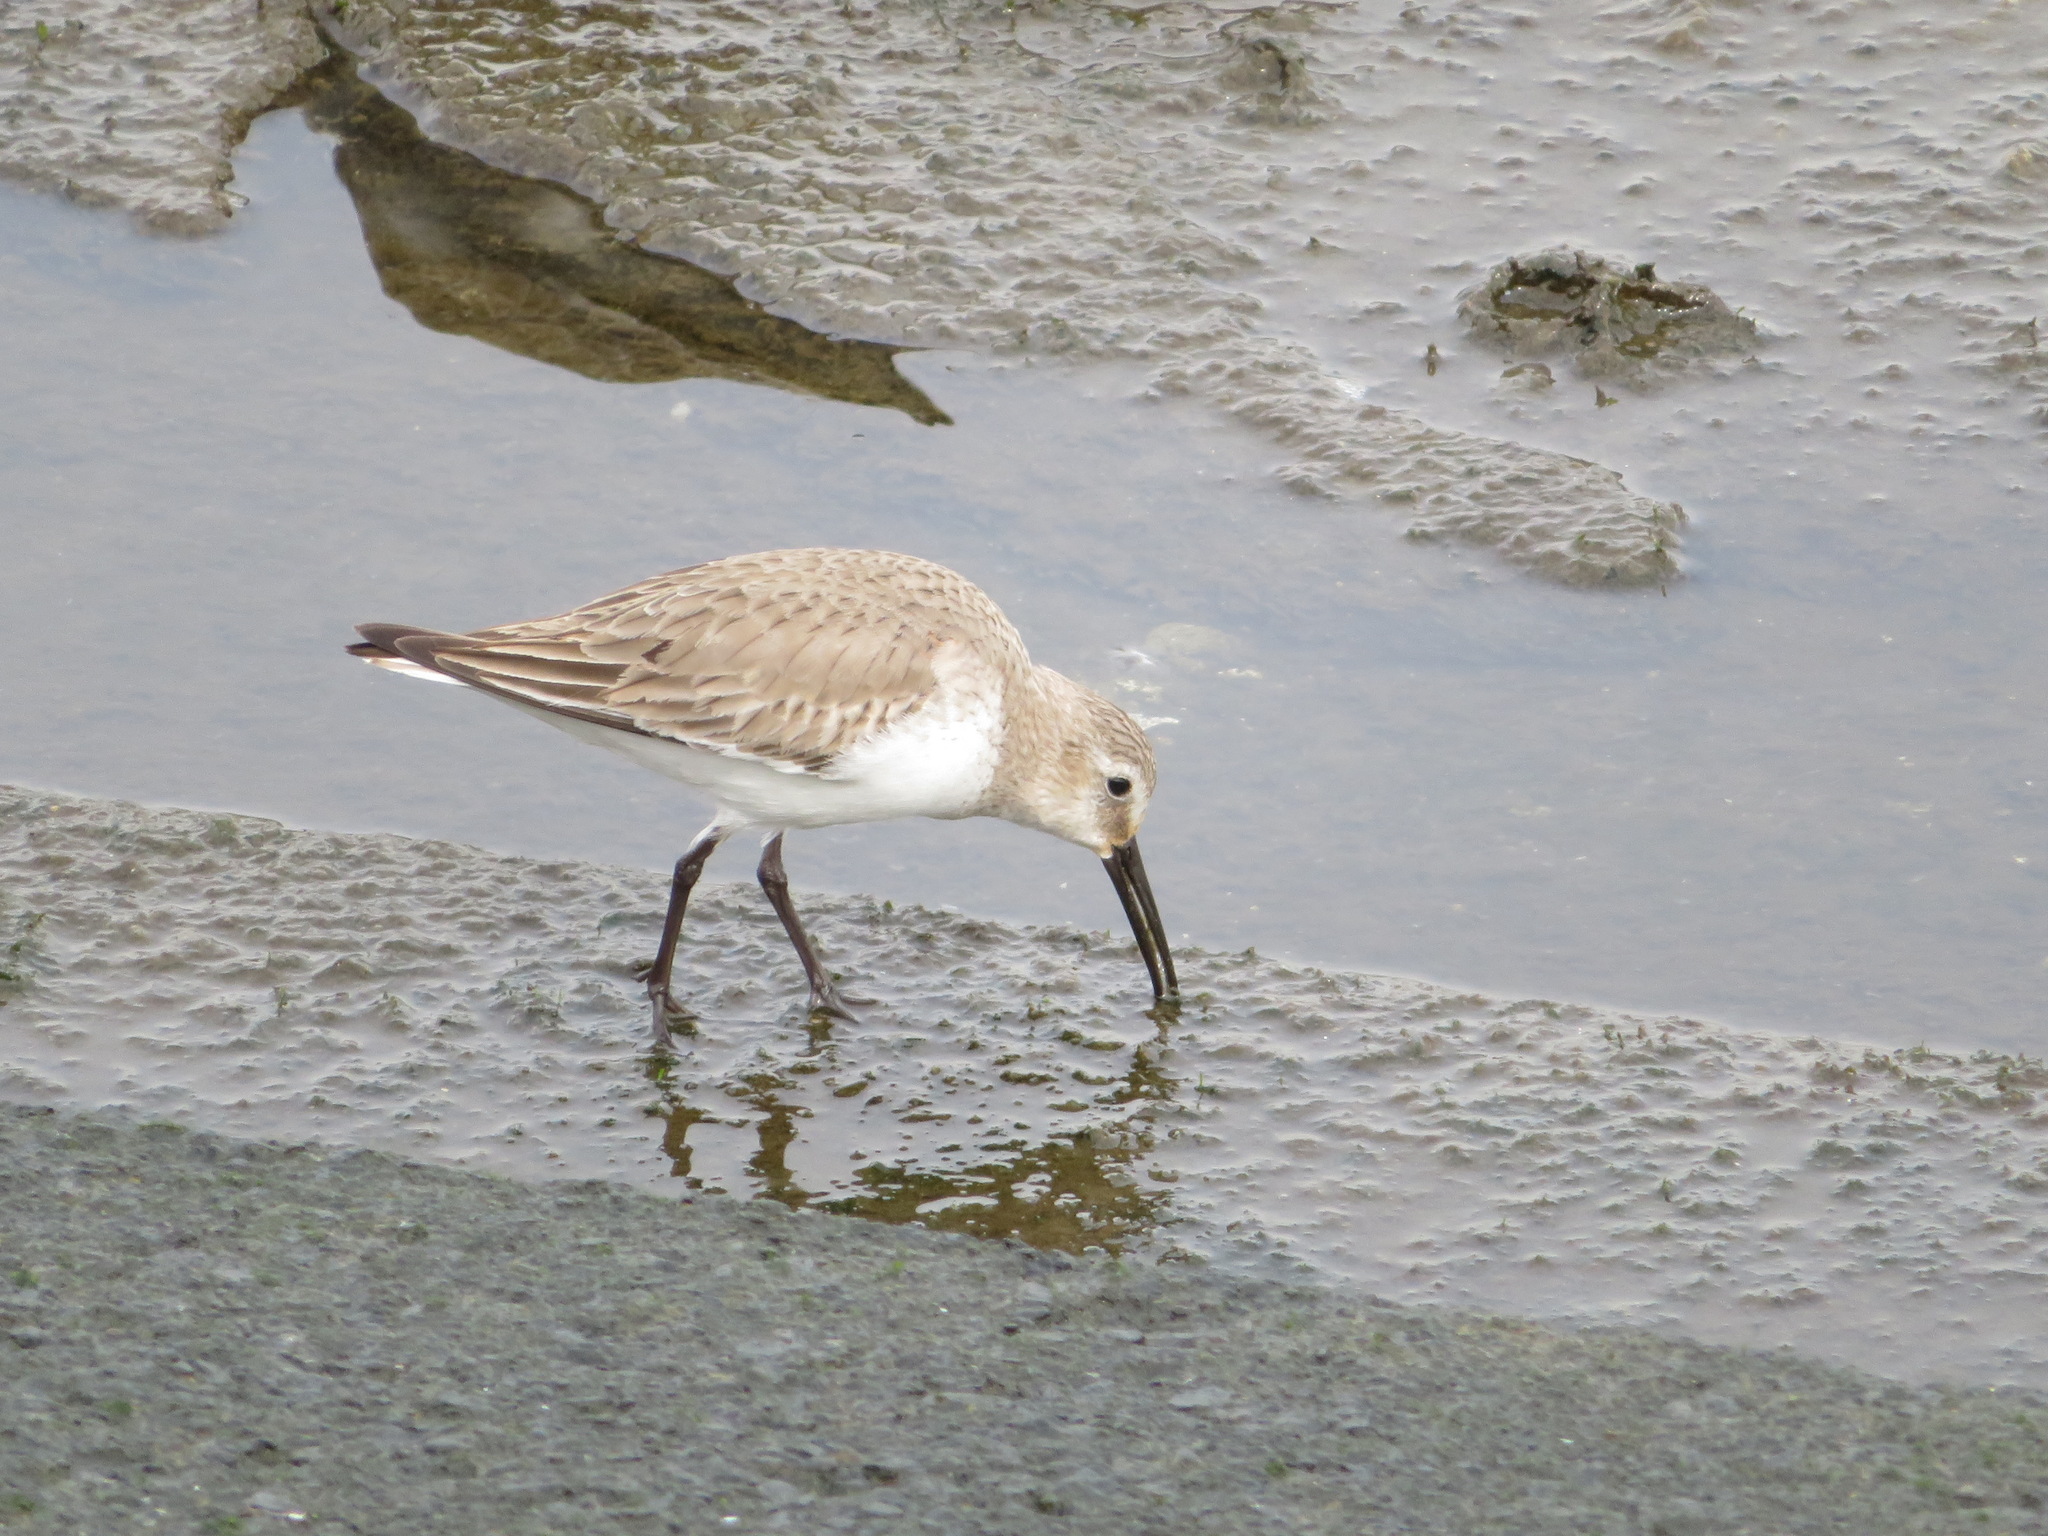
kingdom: Animalia
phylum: Chordata
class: Aves
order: Charadriiformes
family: Scolopacidae
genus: Calidris
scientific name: Calidris alpina
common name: Dunlin
